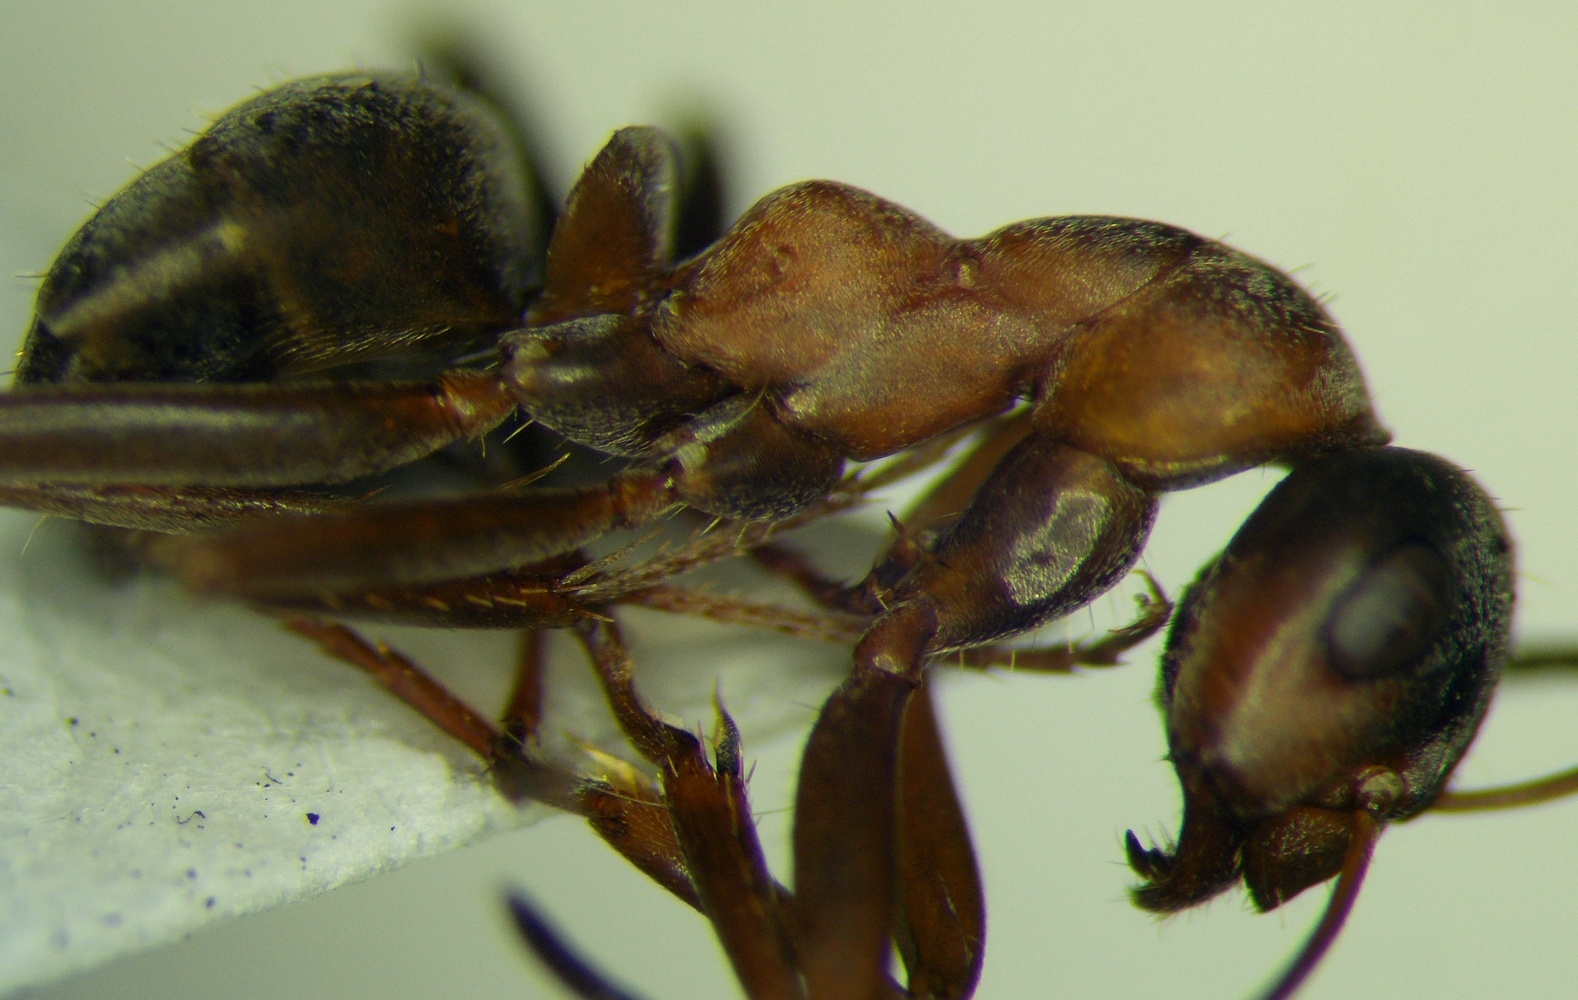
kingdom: Animalia
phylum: Arthropoda
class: Insecta
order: Hymenoptera
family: Formicidae
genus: Formica
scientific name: Formica cunicularia
